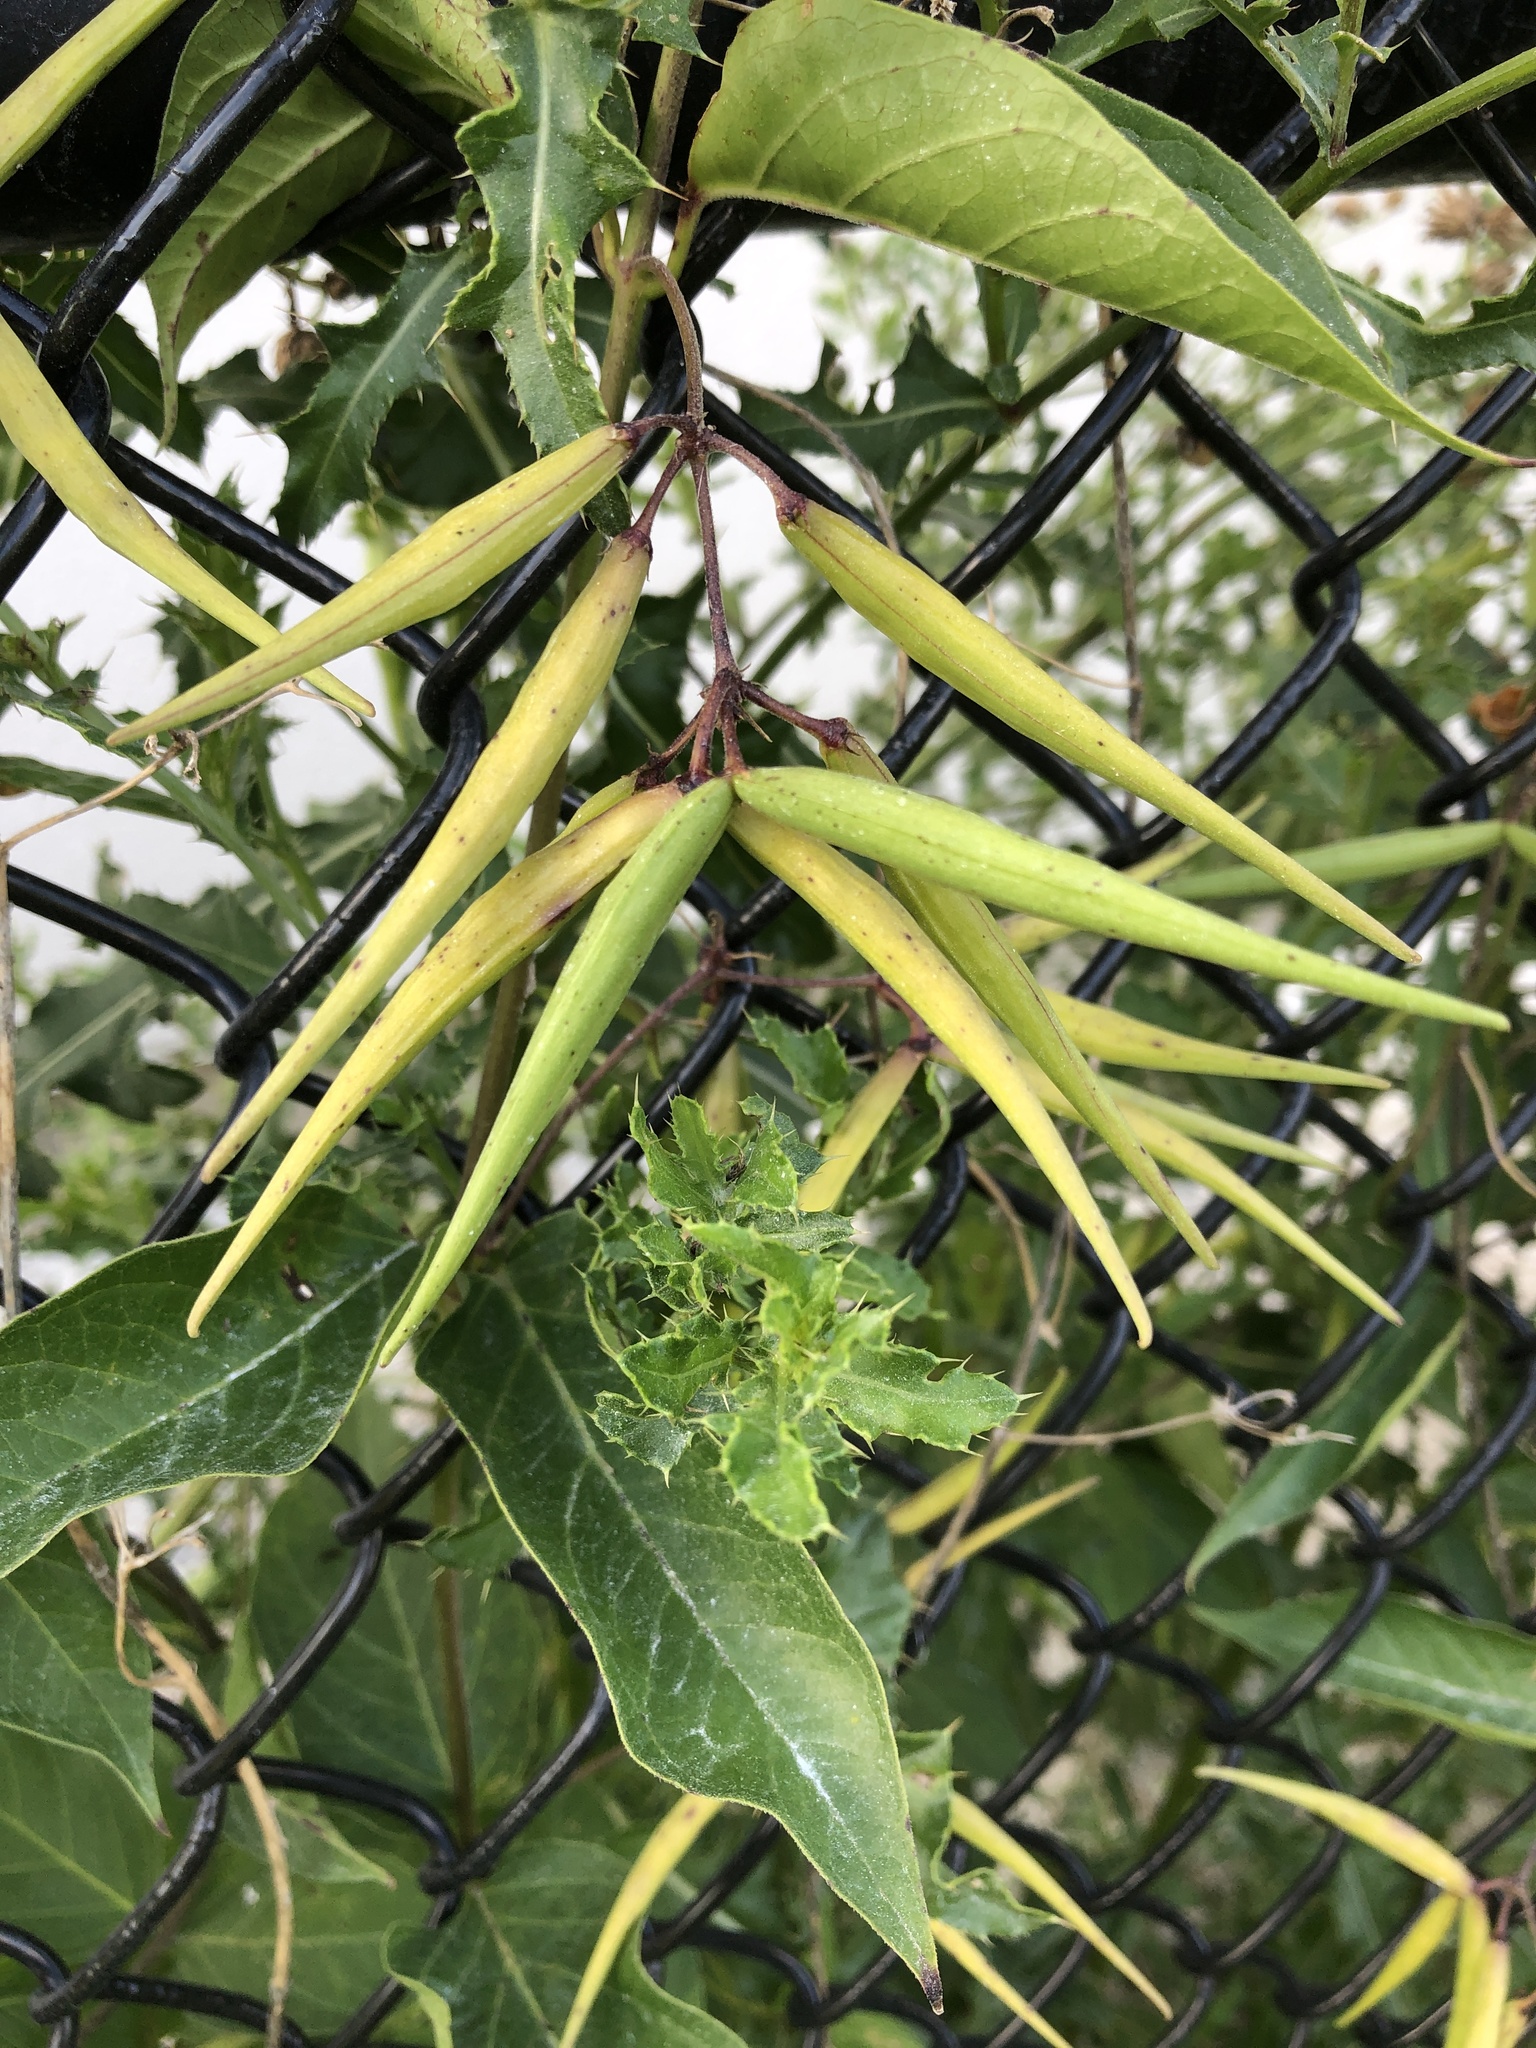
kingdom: Plantae
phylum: Tracheophyta
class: Magnoliopsida
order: Gentianales
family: Apocynaceae
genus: Vincetoxicum
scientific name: Vincetoxicum rossicum
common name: Dog-strangling vine
